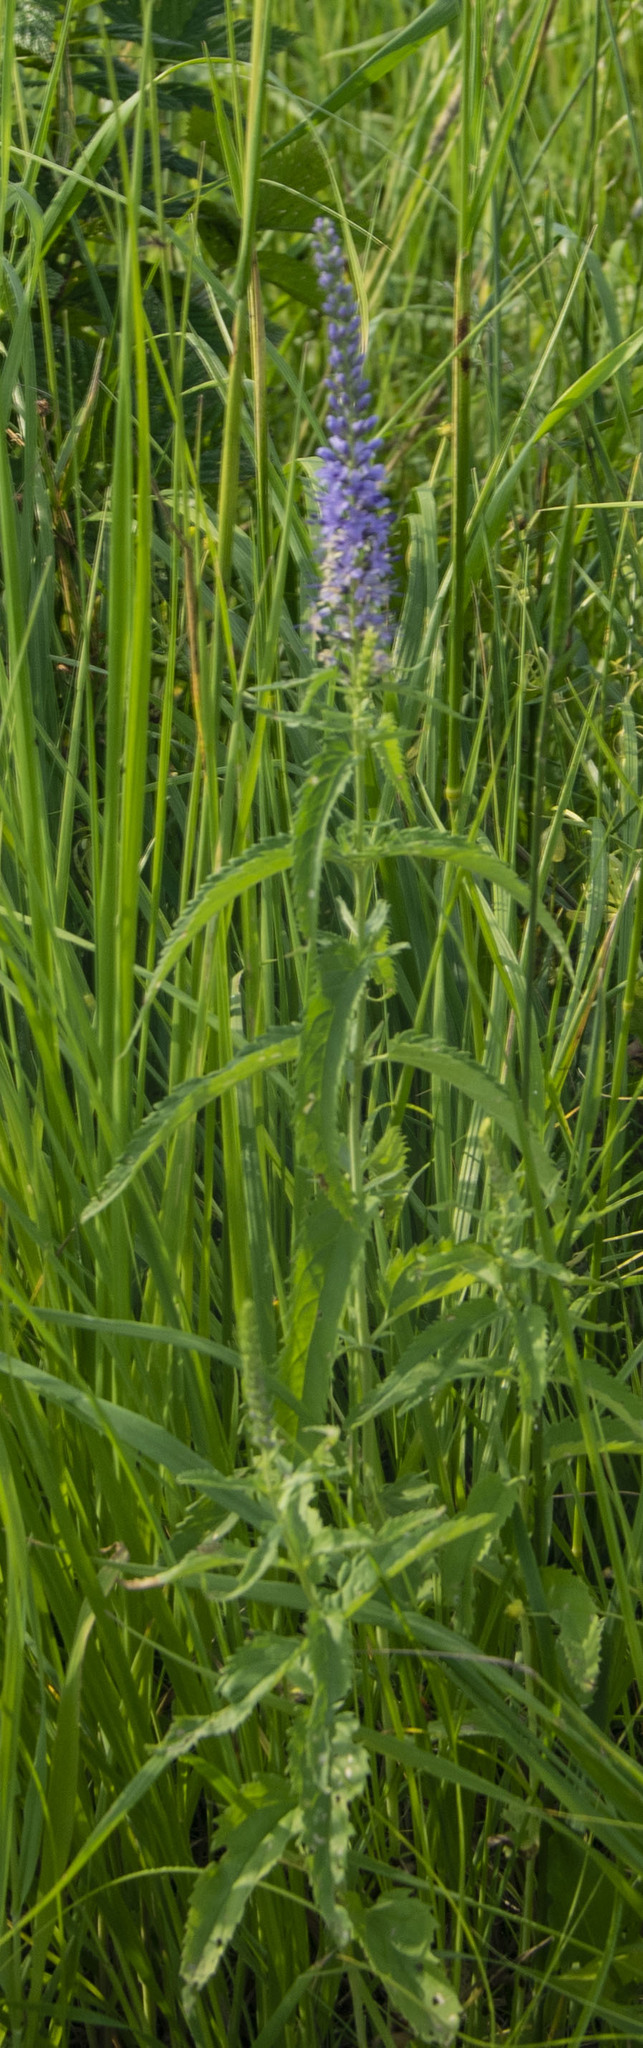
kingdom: Plantae
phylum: Tracheophyta
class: Magnoliopsida
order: Lamiales
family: Plantaginaceae
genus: Veronica
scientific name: Veronica longifolia
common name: Garden speedwell
